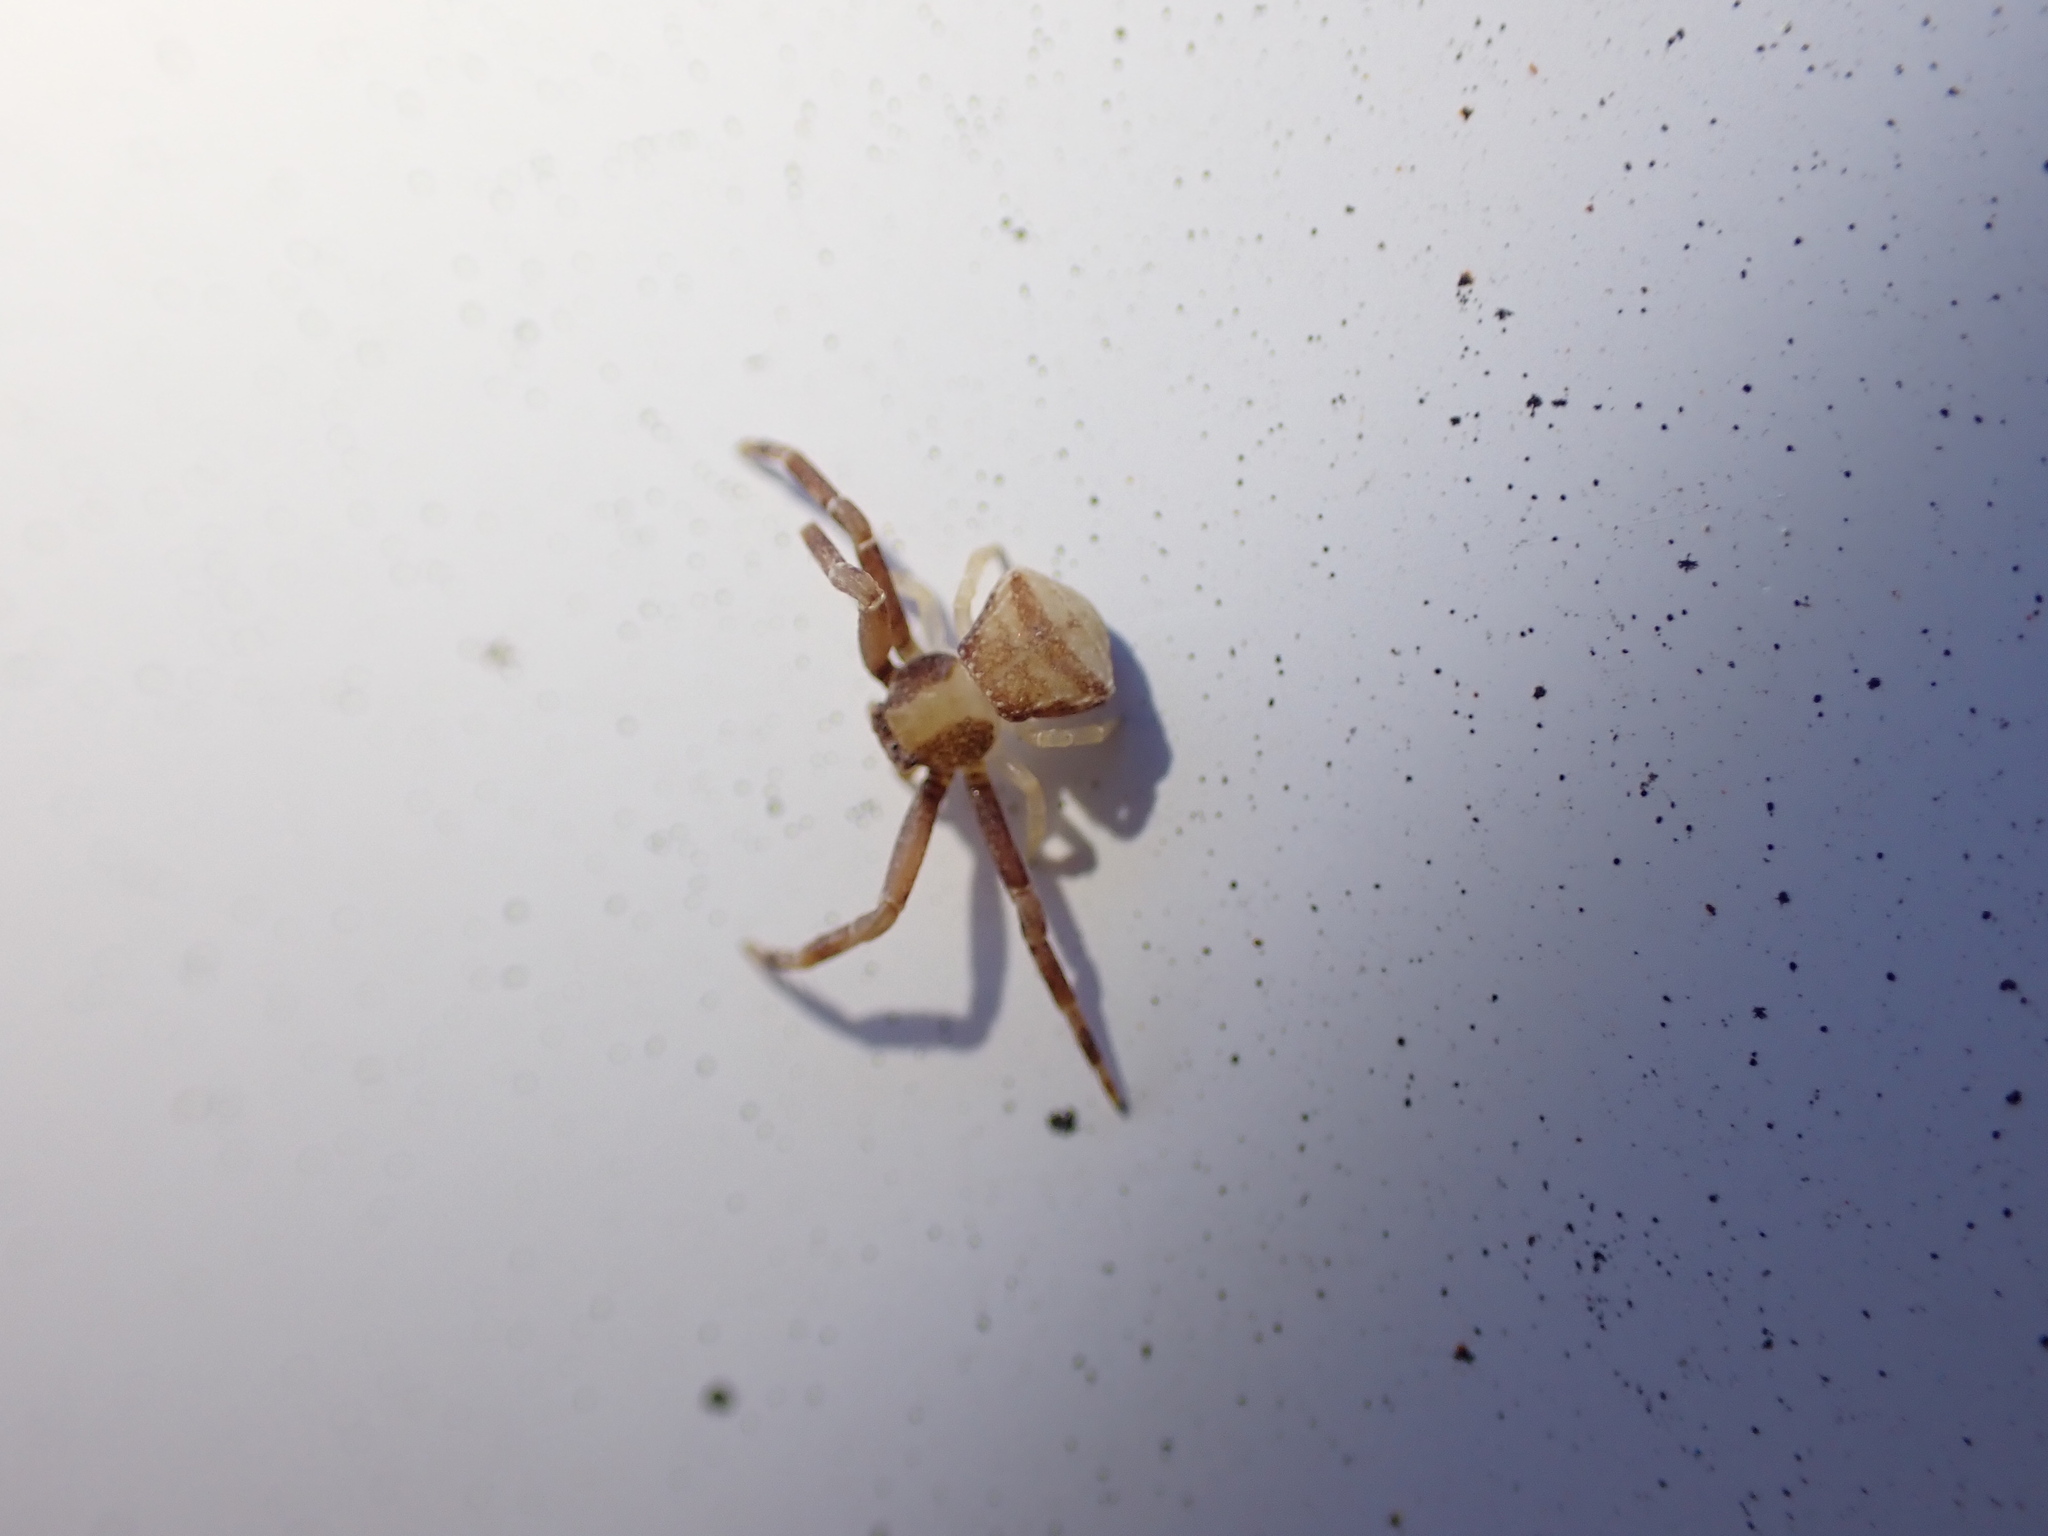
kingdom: Animalia
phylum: Arthropoda
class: Arachnida
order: Araneae
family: Thomisidae
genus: Pistius
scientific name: Pistius truncatus
